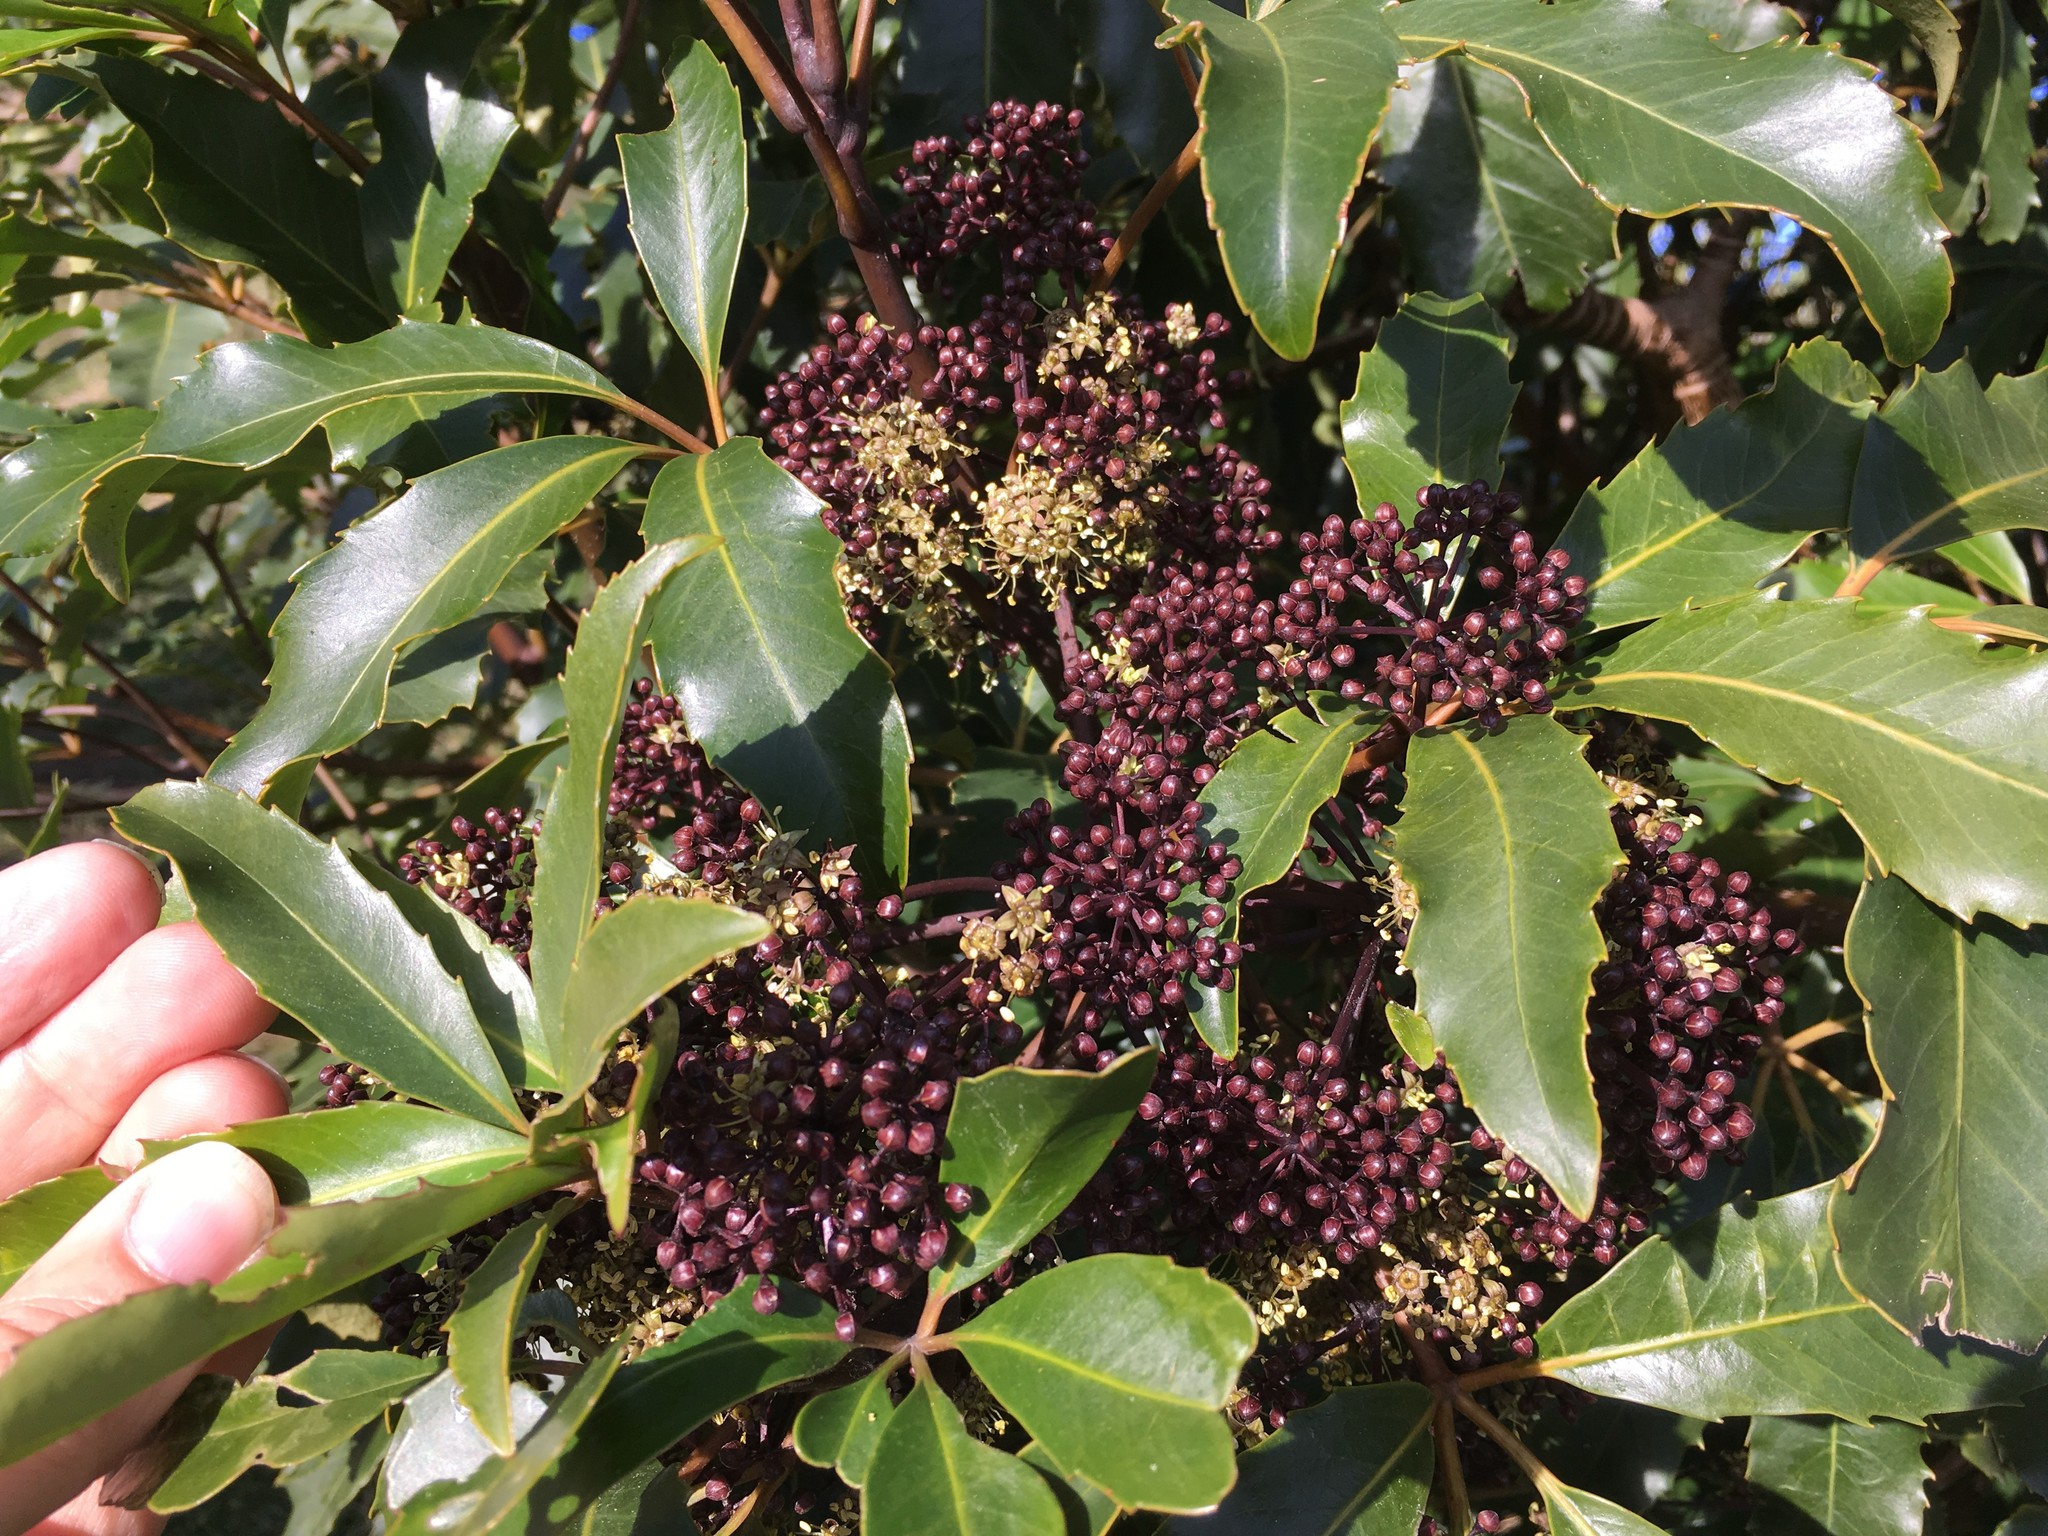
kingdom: Plantae
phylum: Tracheophyta
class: Magnoliopsida
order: Apiales
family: Araliaceae
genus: Neopanax
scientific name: Neopanax arboreus
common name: Five-fingers
